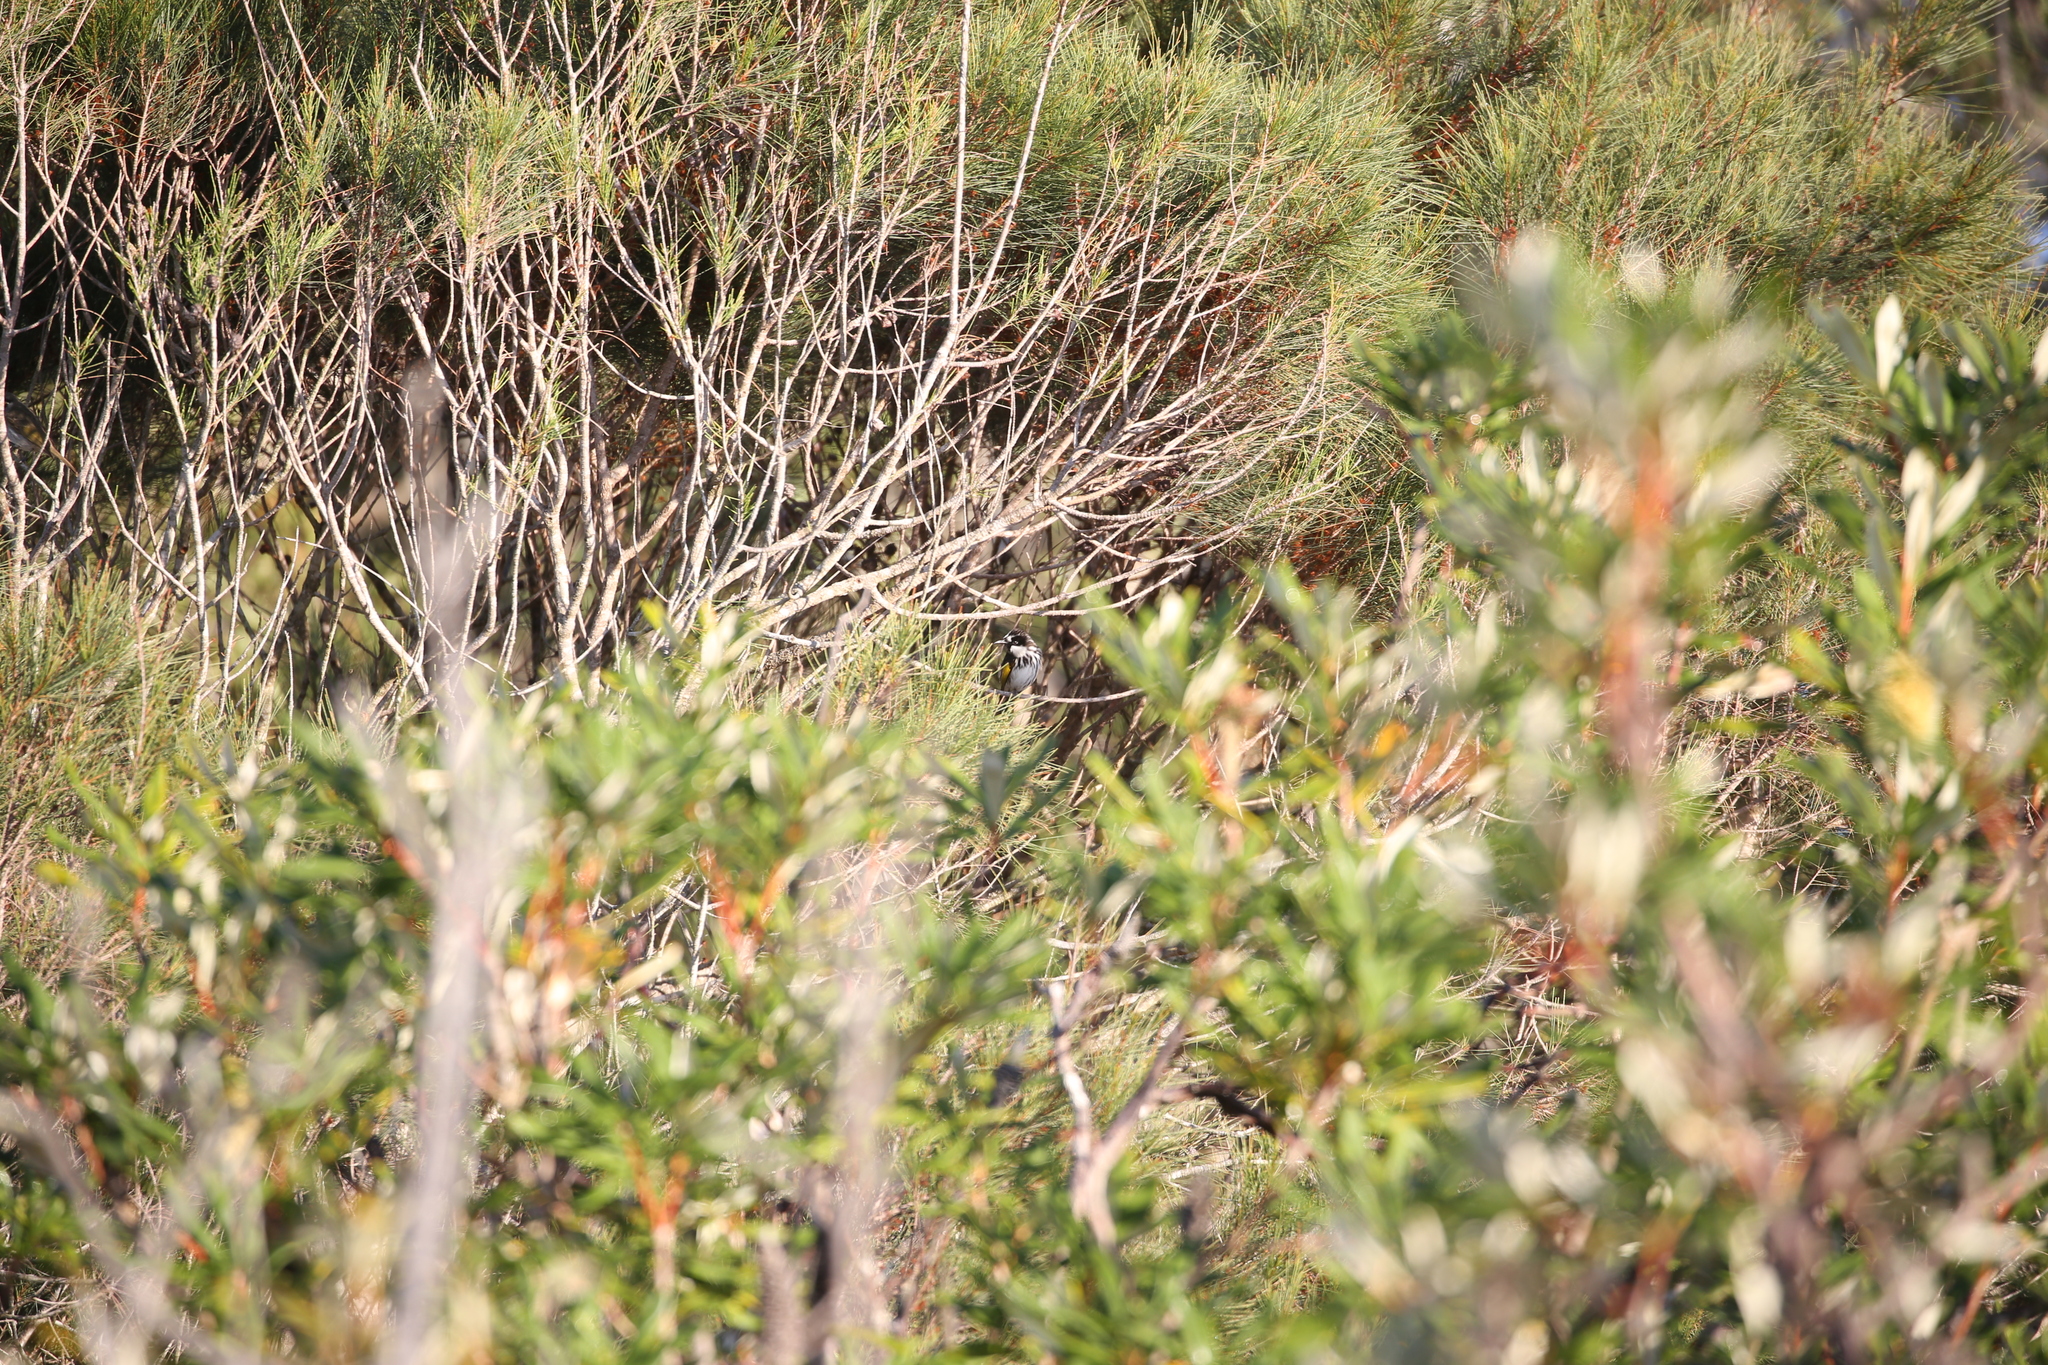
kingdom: Animalia
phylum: Chordata
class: Aves
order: Passeriformes
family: Meliphagidae
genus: Phylidonyris
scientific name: Phylidonyris niger
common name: White-cheeked honeyeater
